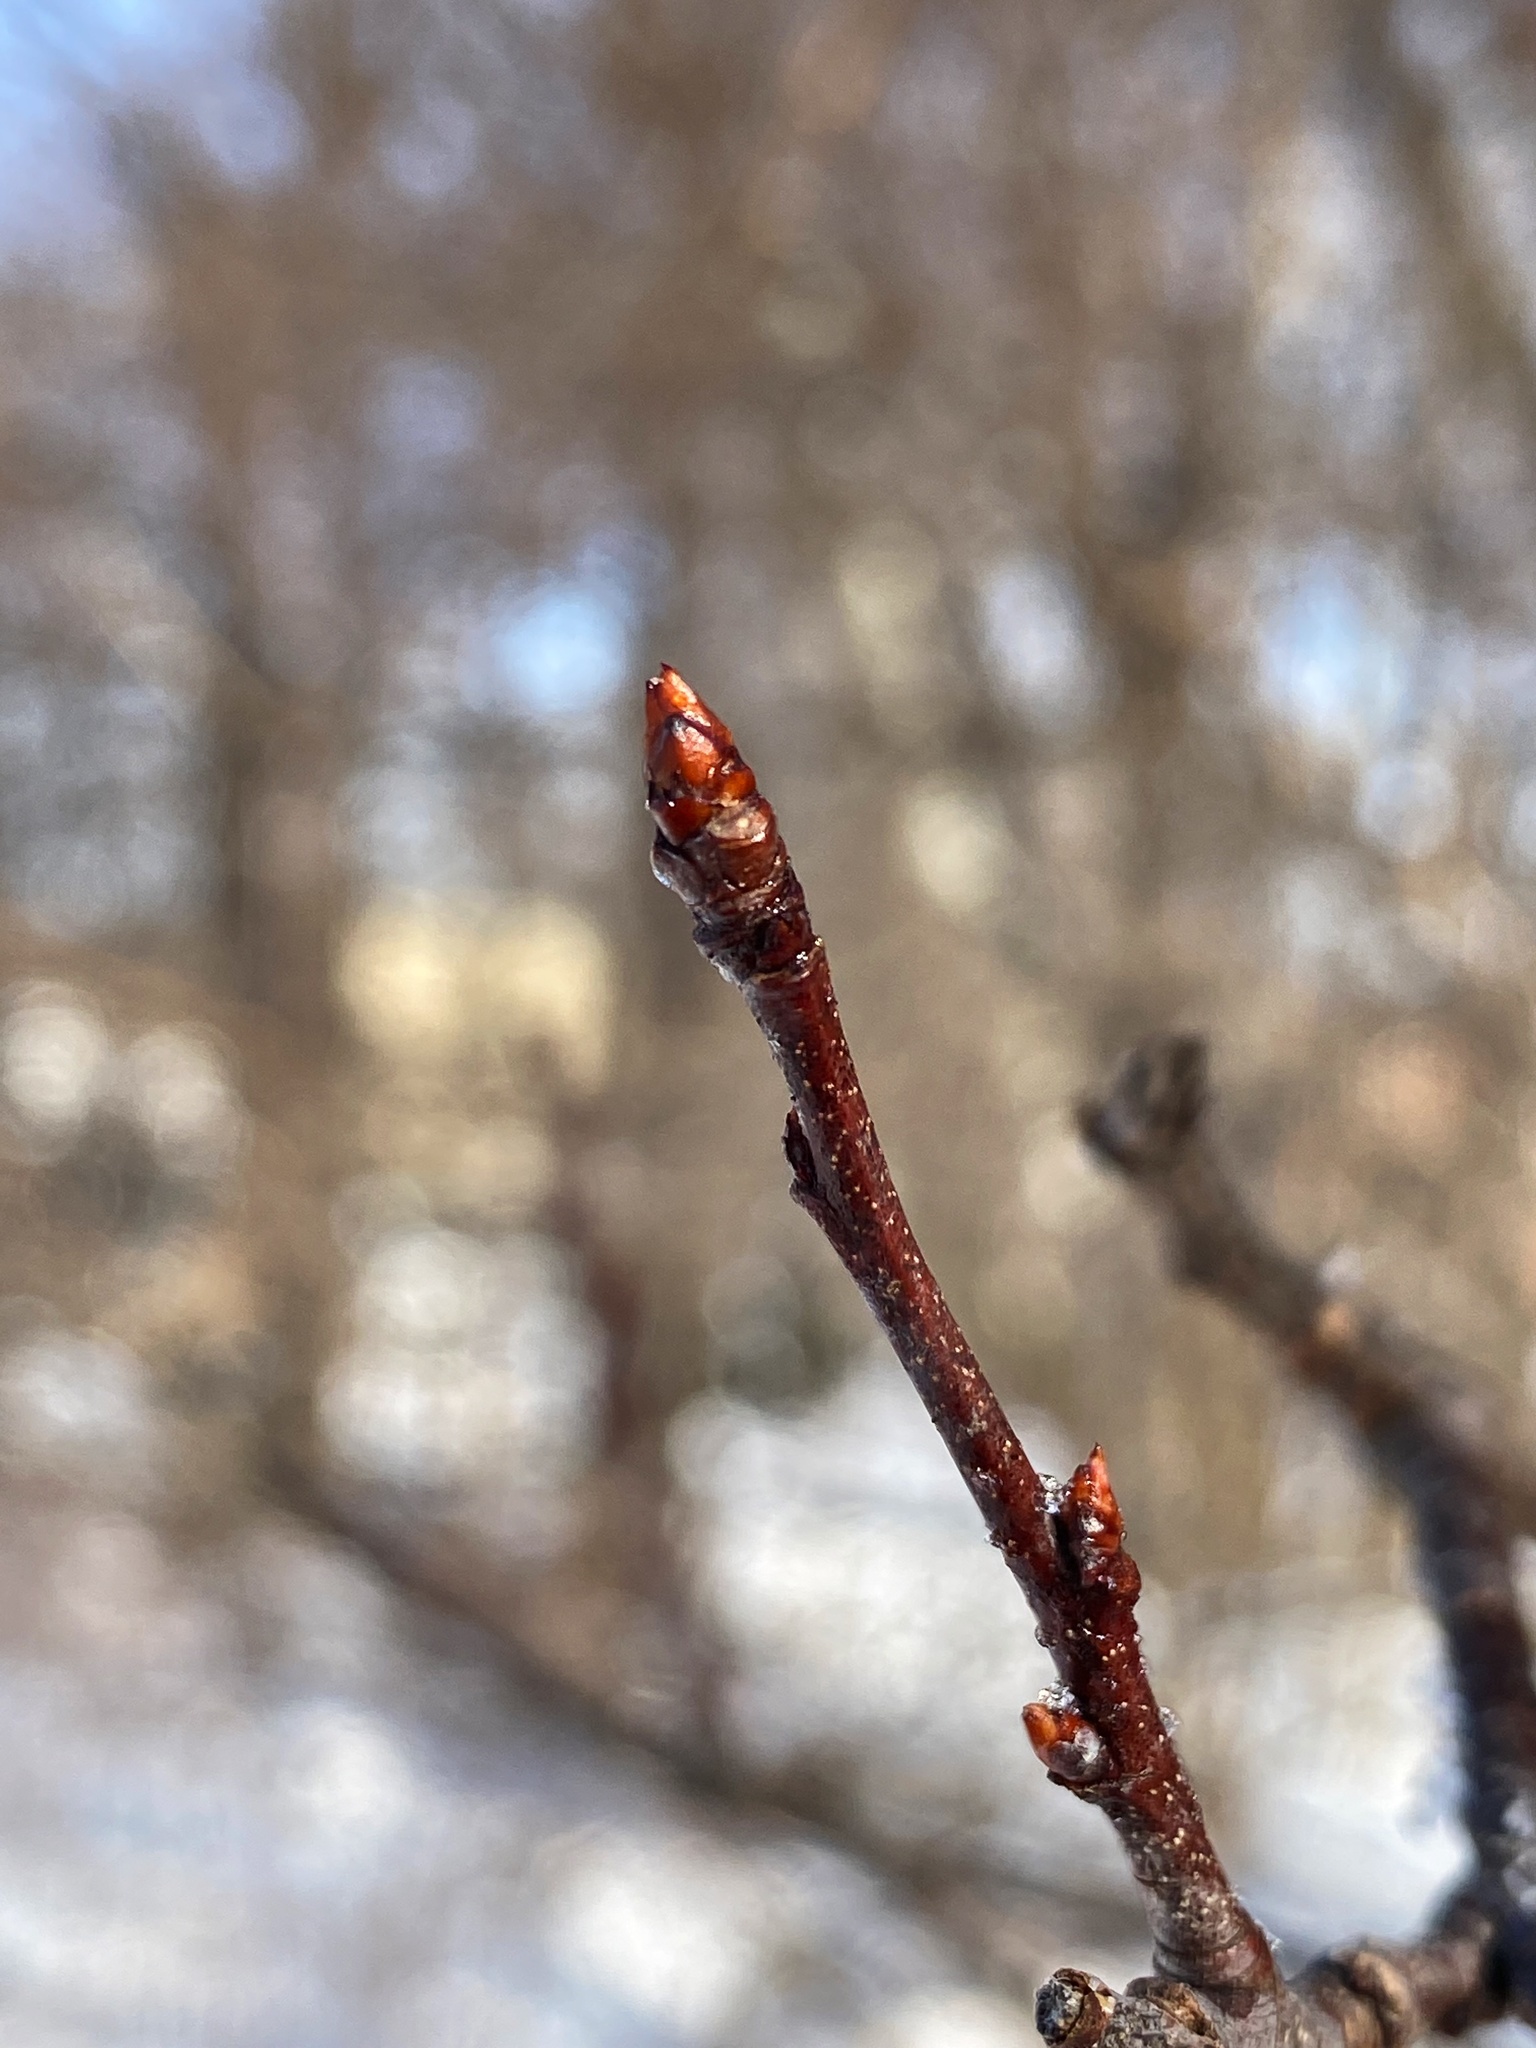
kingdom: Plantae
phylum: Tracheophyta
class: Magnoliopsida
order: Rosales
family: Rosaceae
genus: Prunus
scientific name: Prunus serotina
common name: Black cherry
